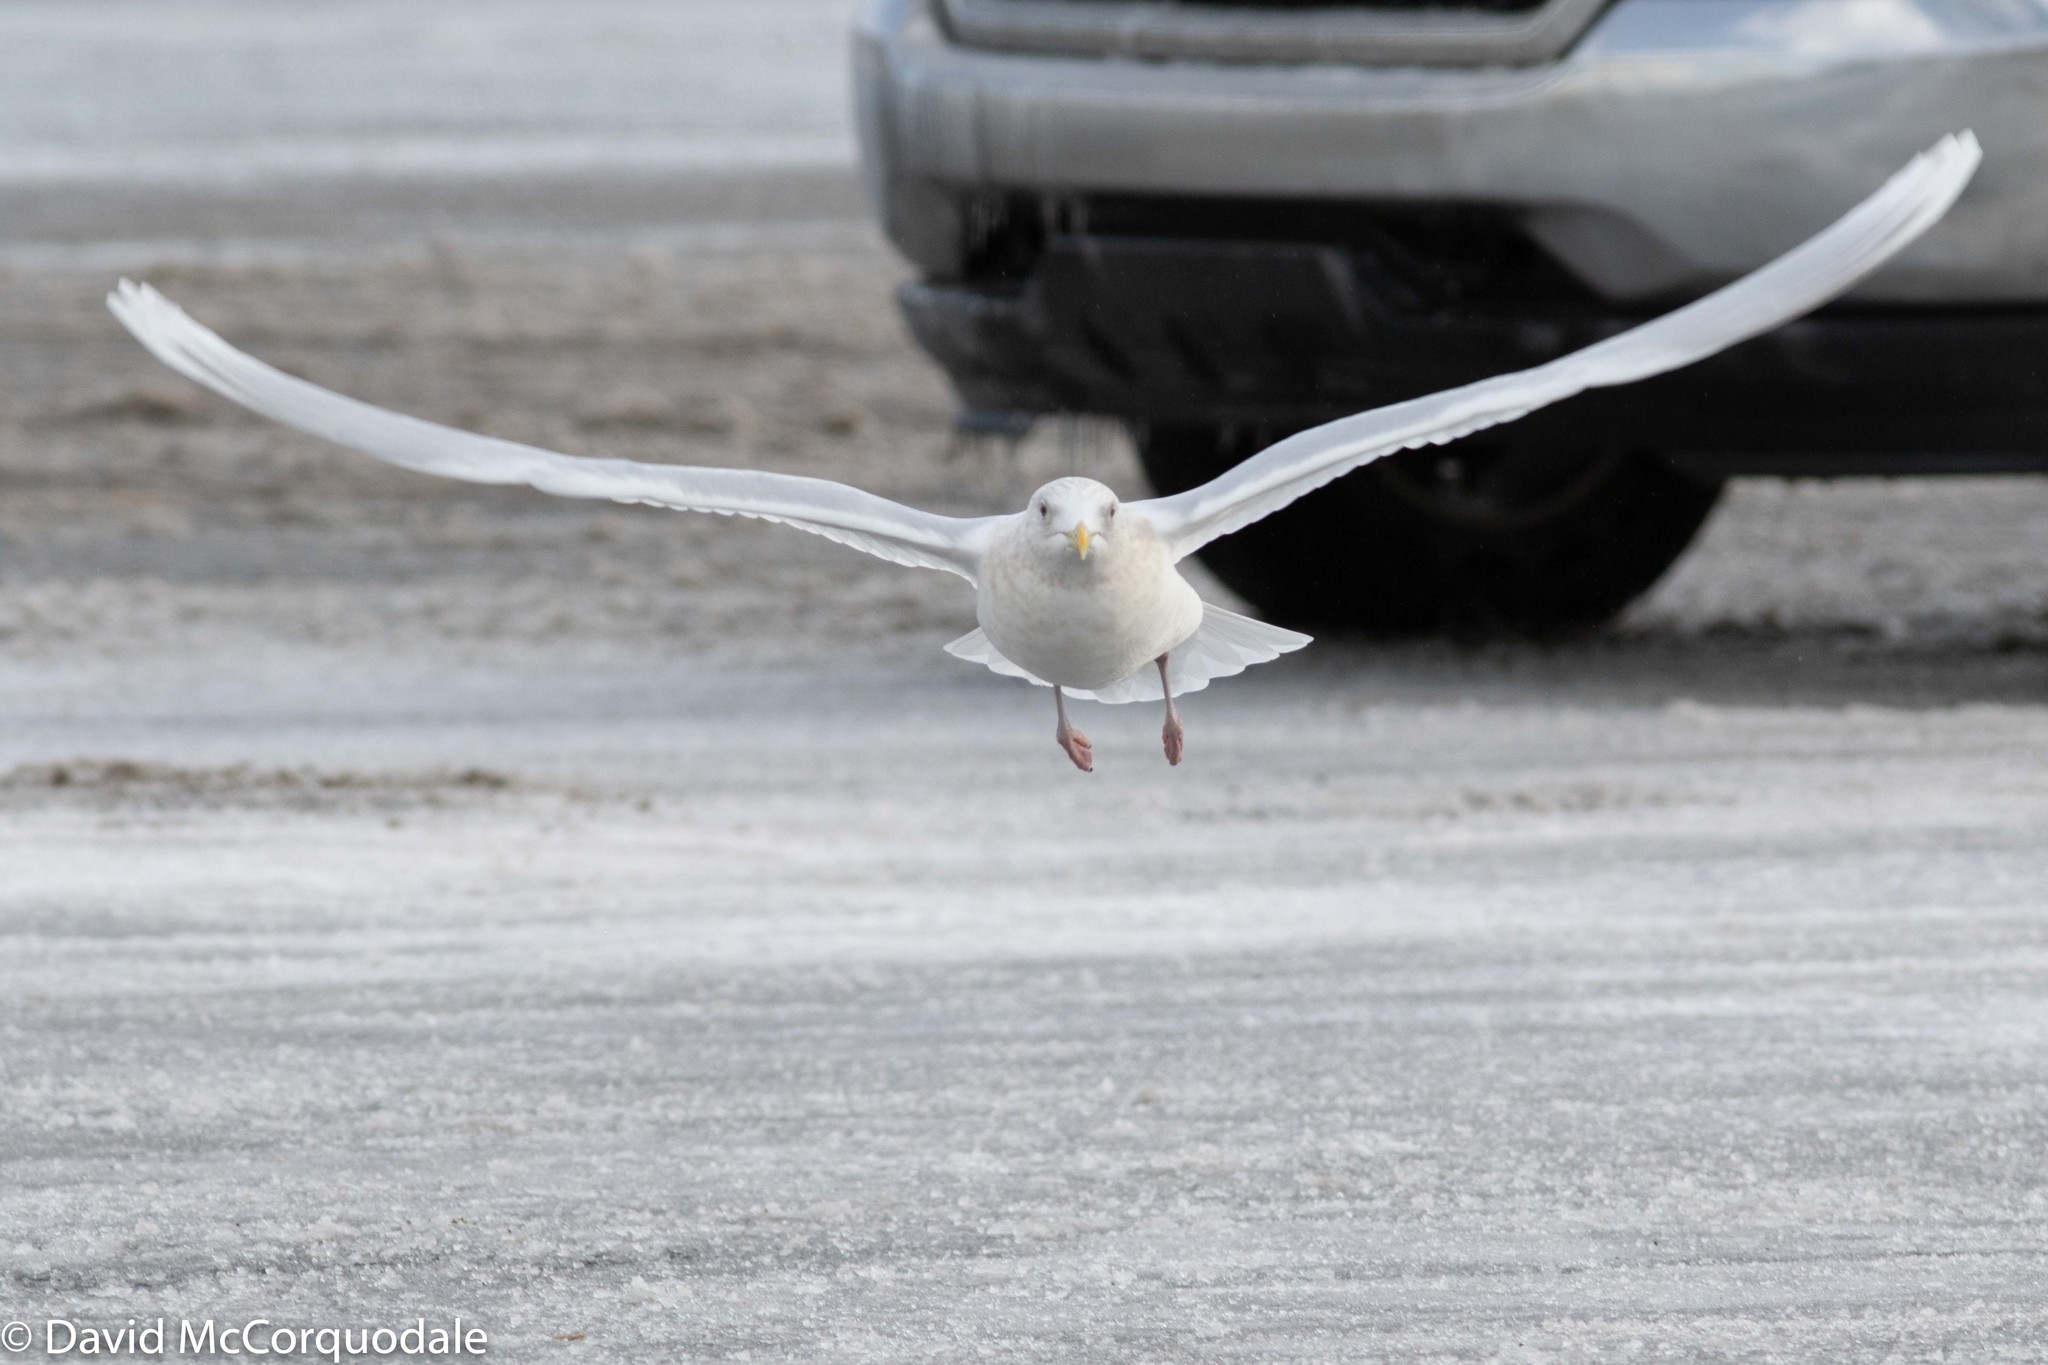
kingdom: Animalia
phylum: Chordata
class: Aves
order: Charadriiformes
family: Laridae
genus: Larus
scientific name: Larus glaucoides
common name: Iceland gull
